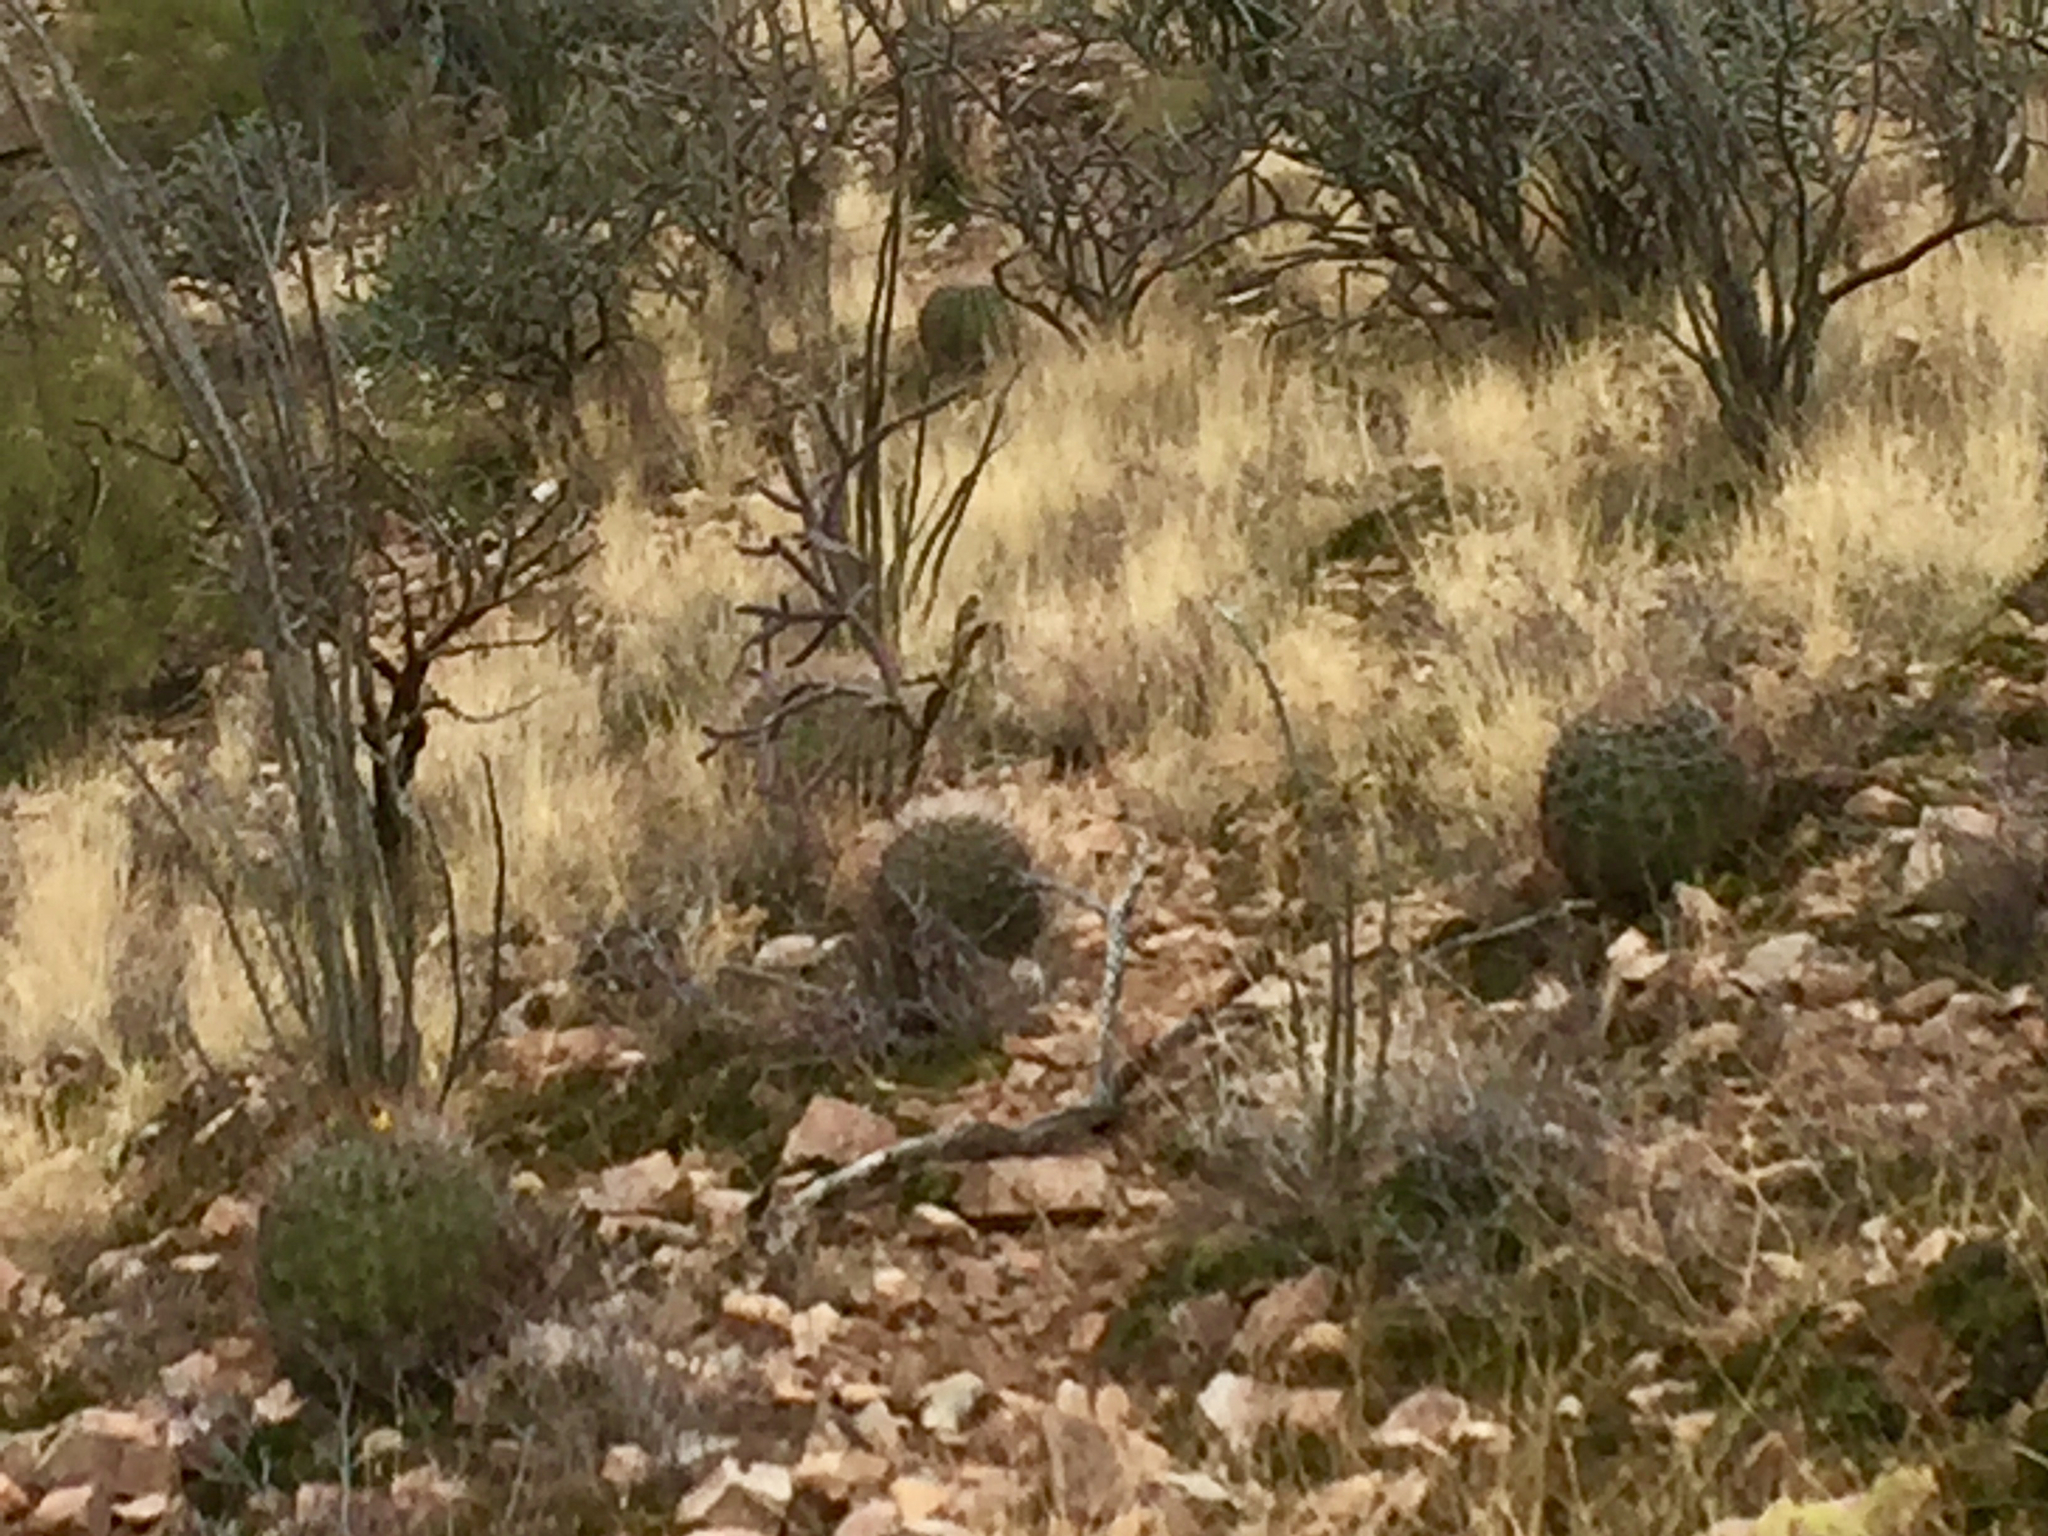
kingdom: Plantae
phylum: Tracheophyta
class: Magnoliopsida
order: Caryophyllales
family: Cactaceae
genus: Ferocactus
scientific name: Ferocactus wislizeni
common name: Candy barrel cactus
